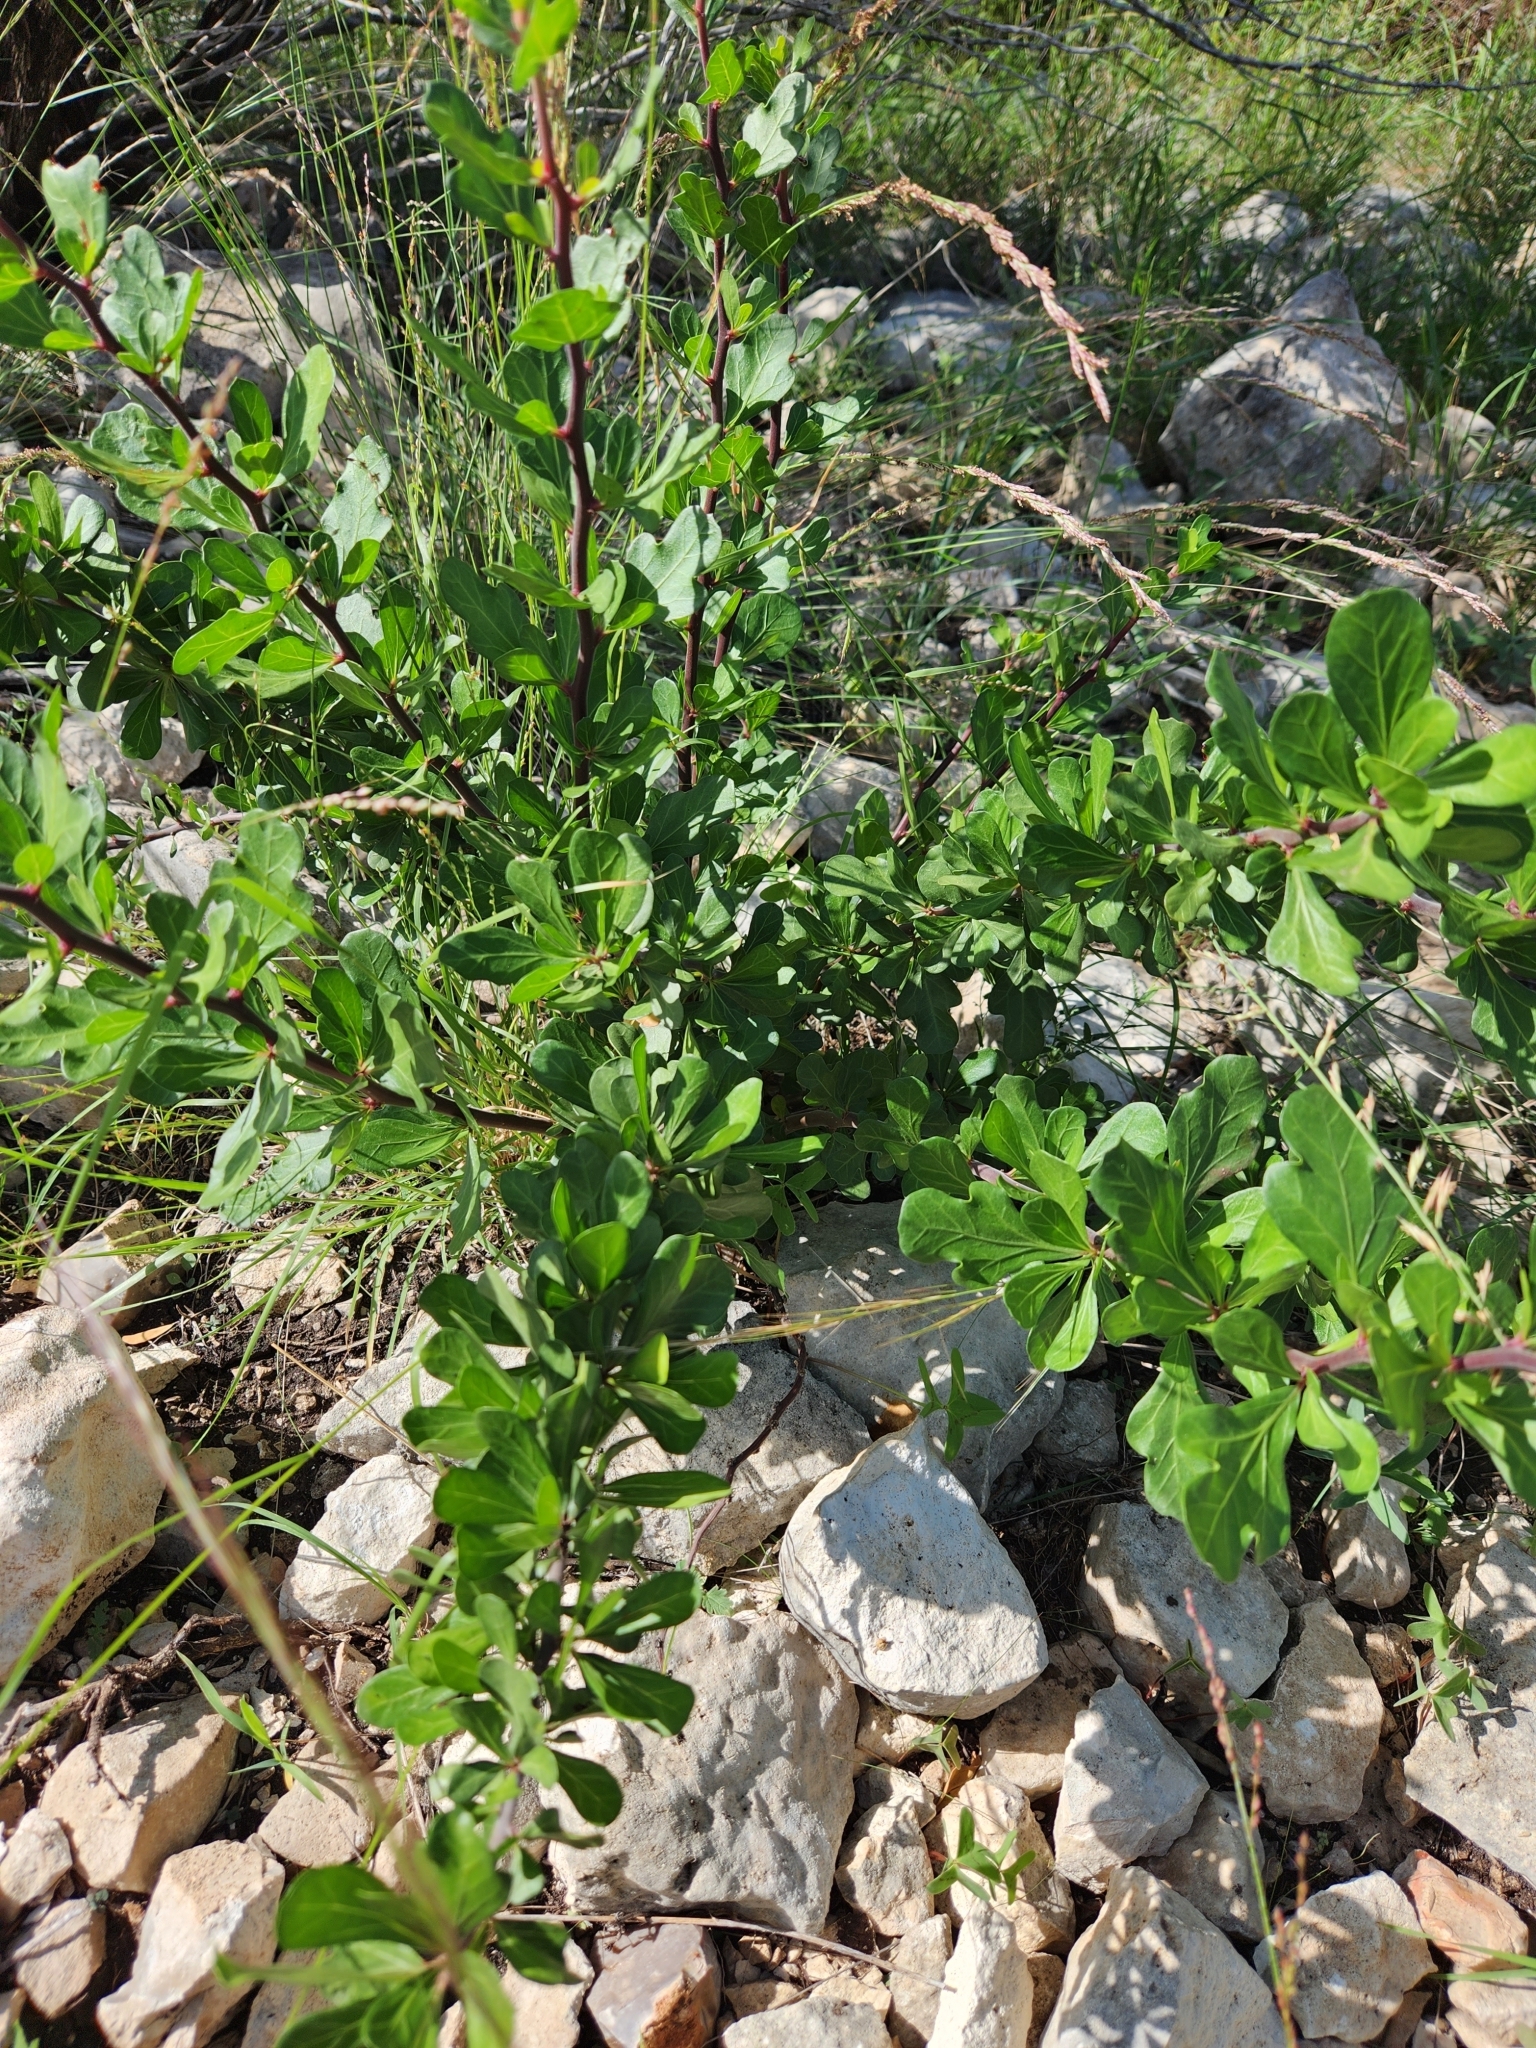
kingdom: Plantae
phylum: Tracheophyta
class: Magnoliopsida
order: Malpighiales
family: Euphorbiaceae
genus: Jatropha
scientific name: Jatropha dioica
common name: Leatherstem
